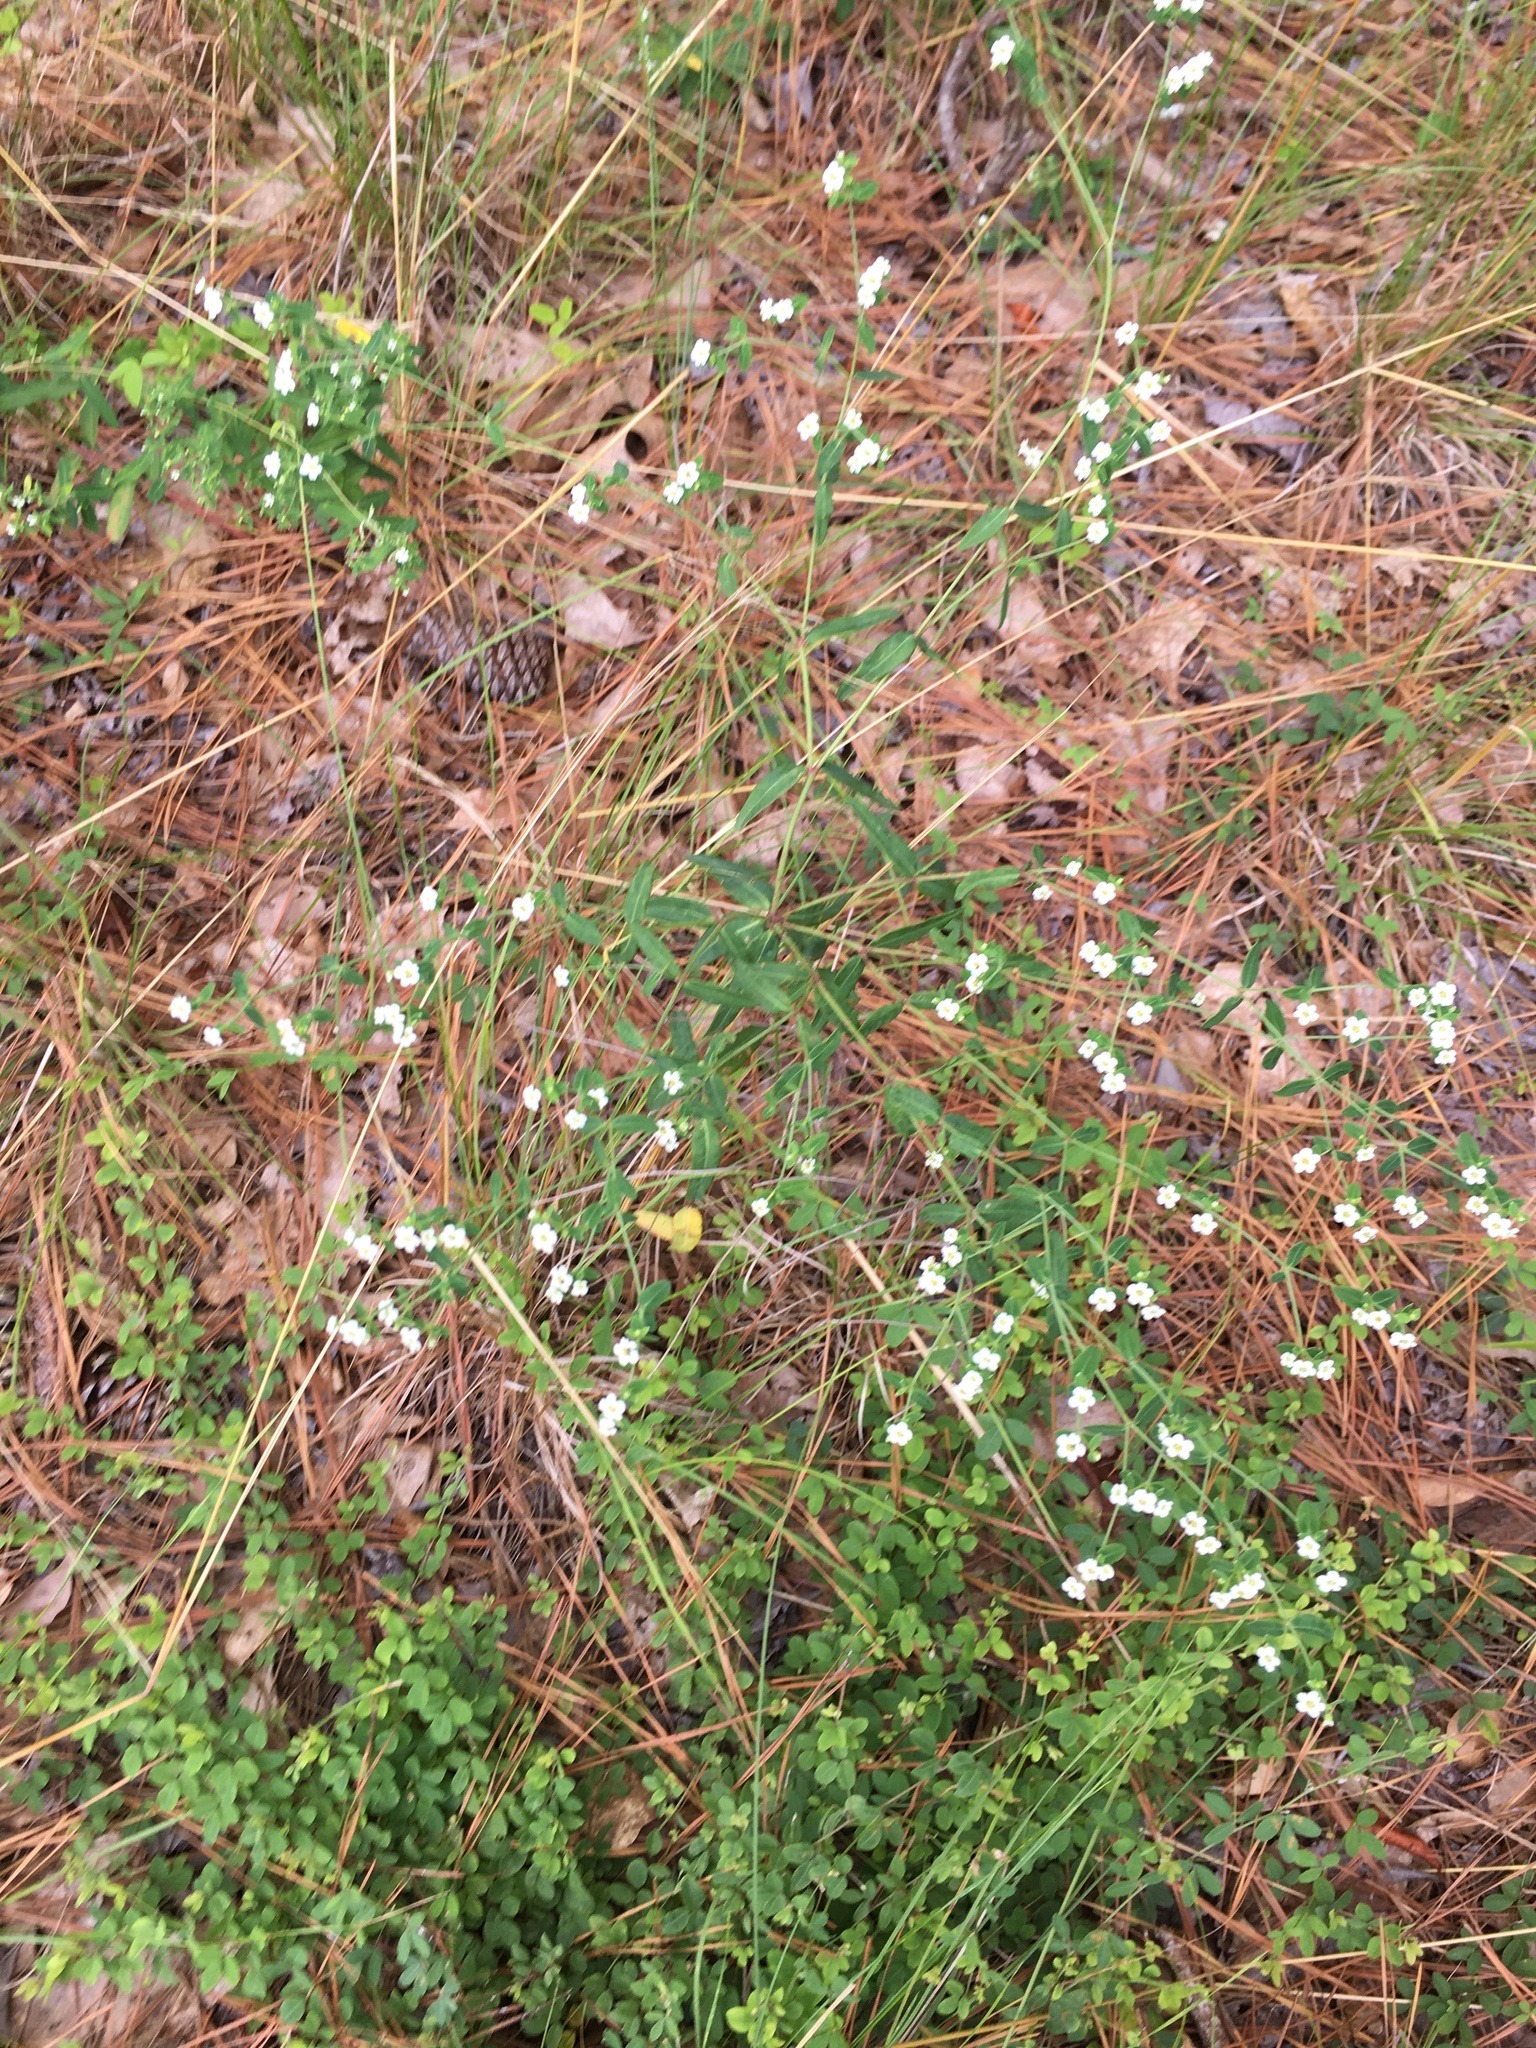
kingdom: Plantae
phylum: Tracheophyta
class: Magnoliopsida
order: Malpighiales
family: Euphorbiaceae
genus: Euphorbia
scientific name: Euphorbia corollata
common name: Flowering spurge
